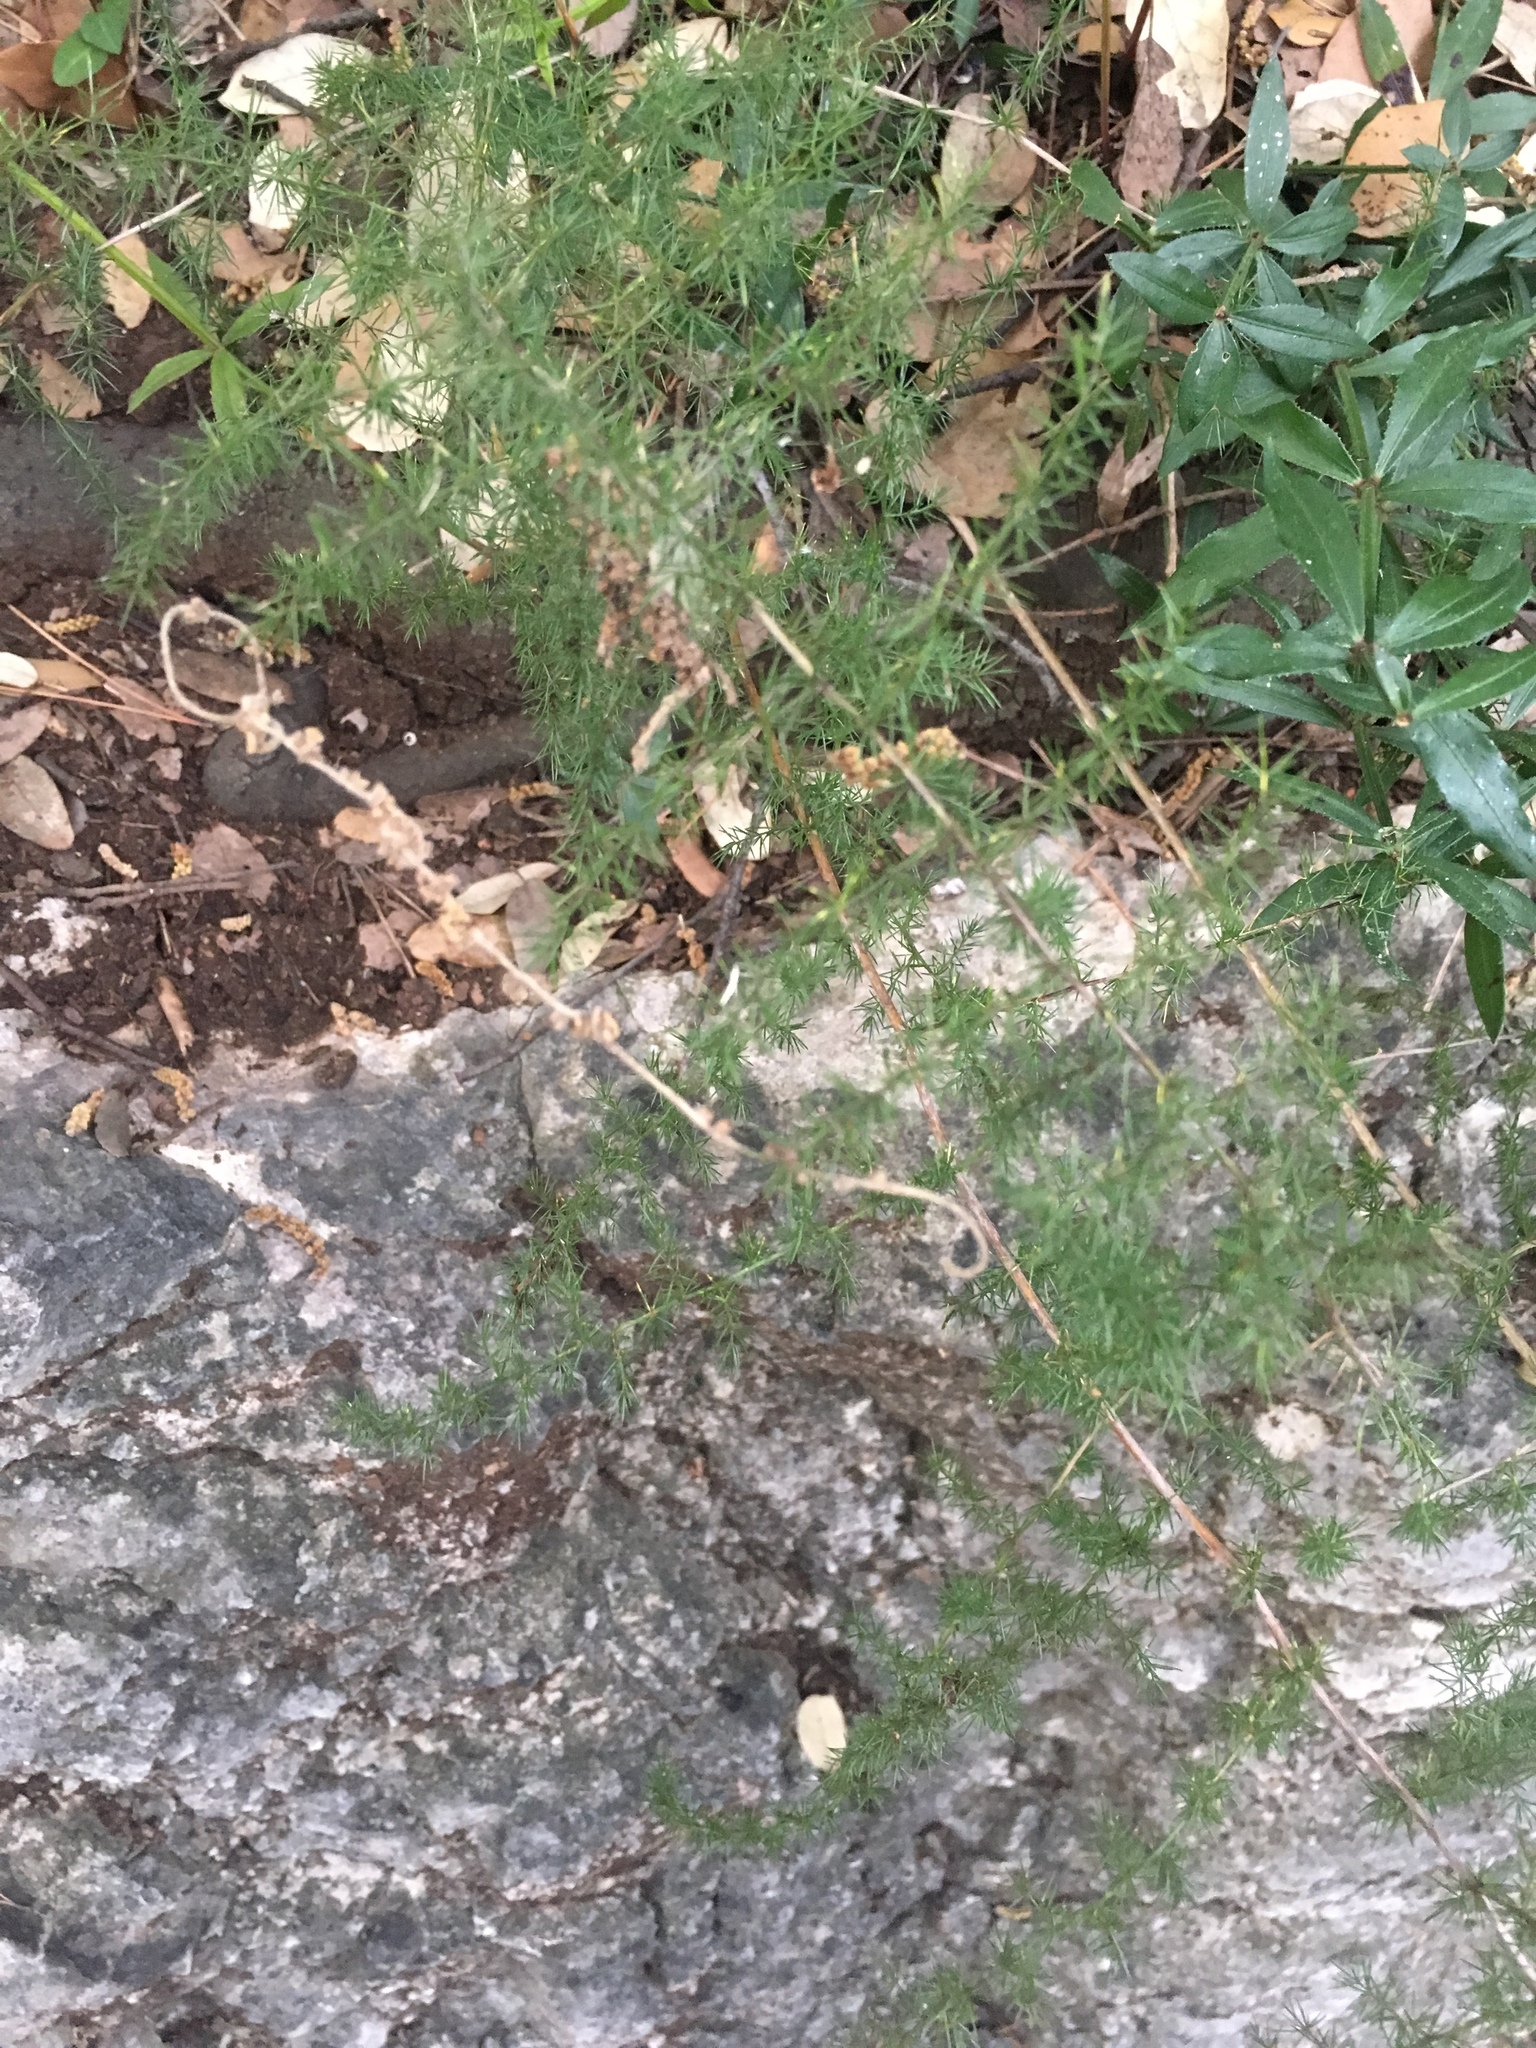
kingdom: Plantae
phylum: Tracheophyta
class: Liliopsida
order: Asparagales
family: Asparagaceae
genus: Asparagus
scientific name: Asparagus acutifolius
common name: Wild asparagus
